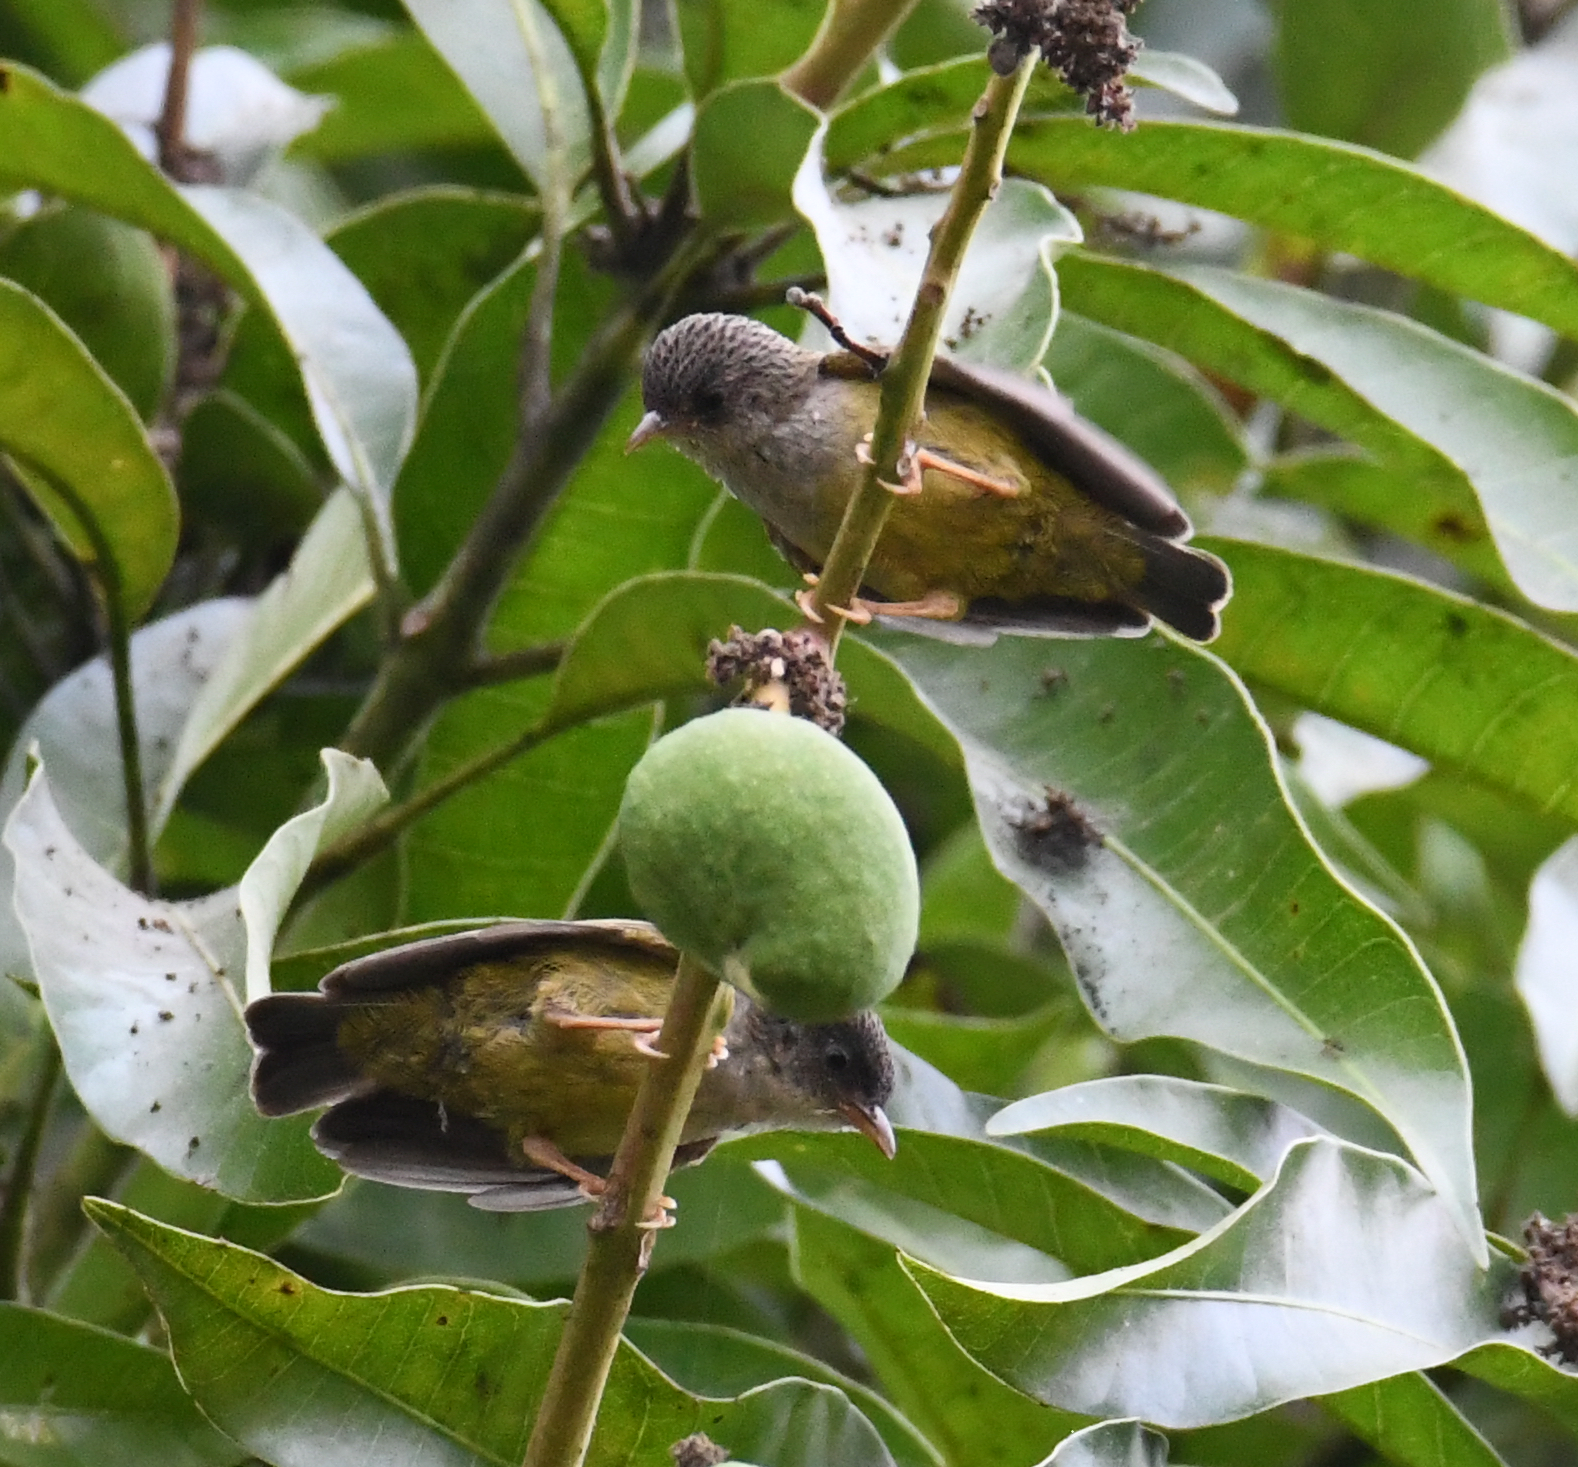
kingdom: Animalia
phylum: Chordata
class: Aves
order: Passeriformes
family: Cettiidae
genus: Pholidornis
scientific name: Pholidornis rushiae
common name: Tit-hylia
